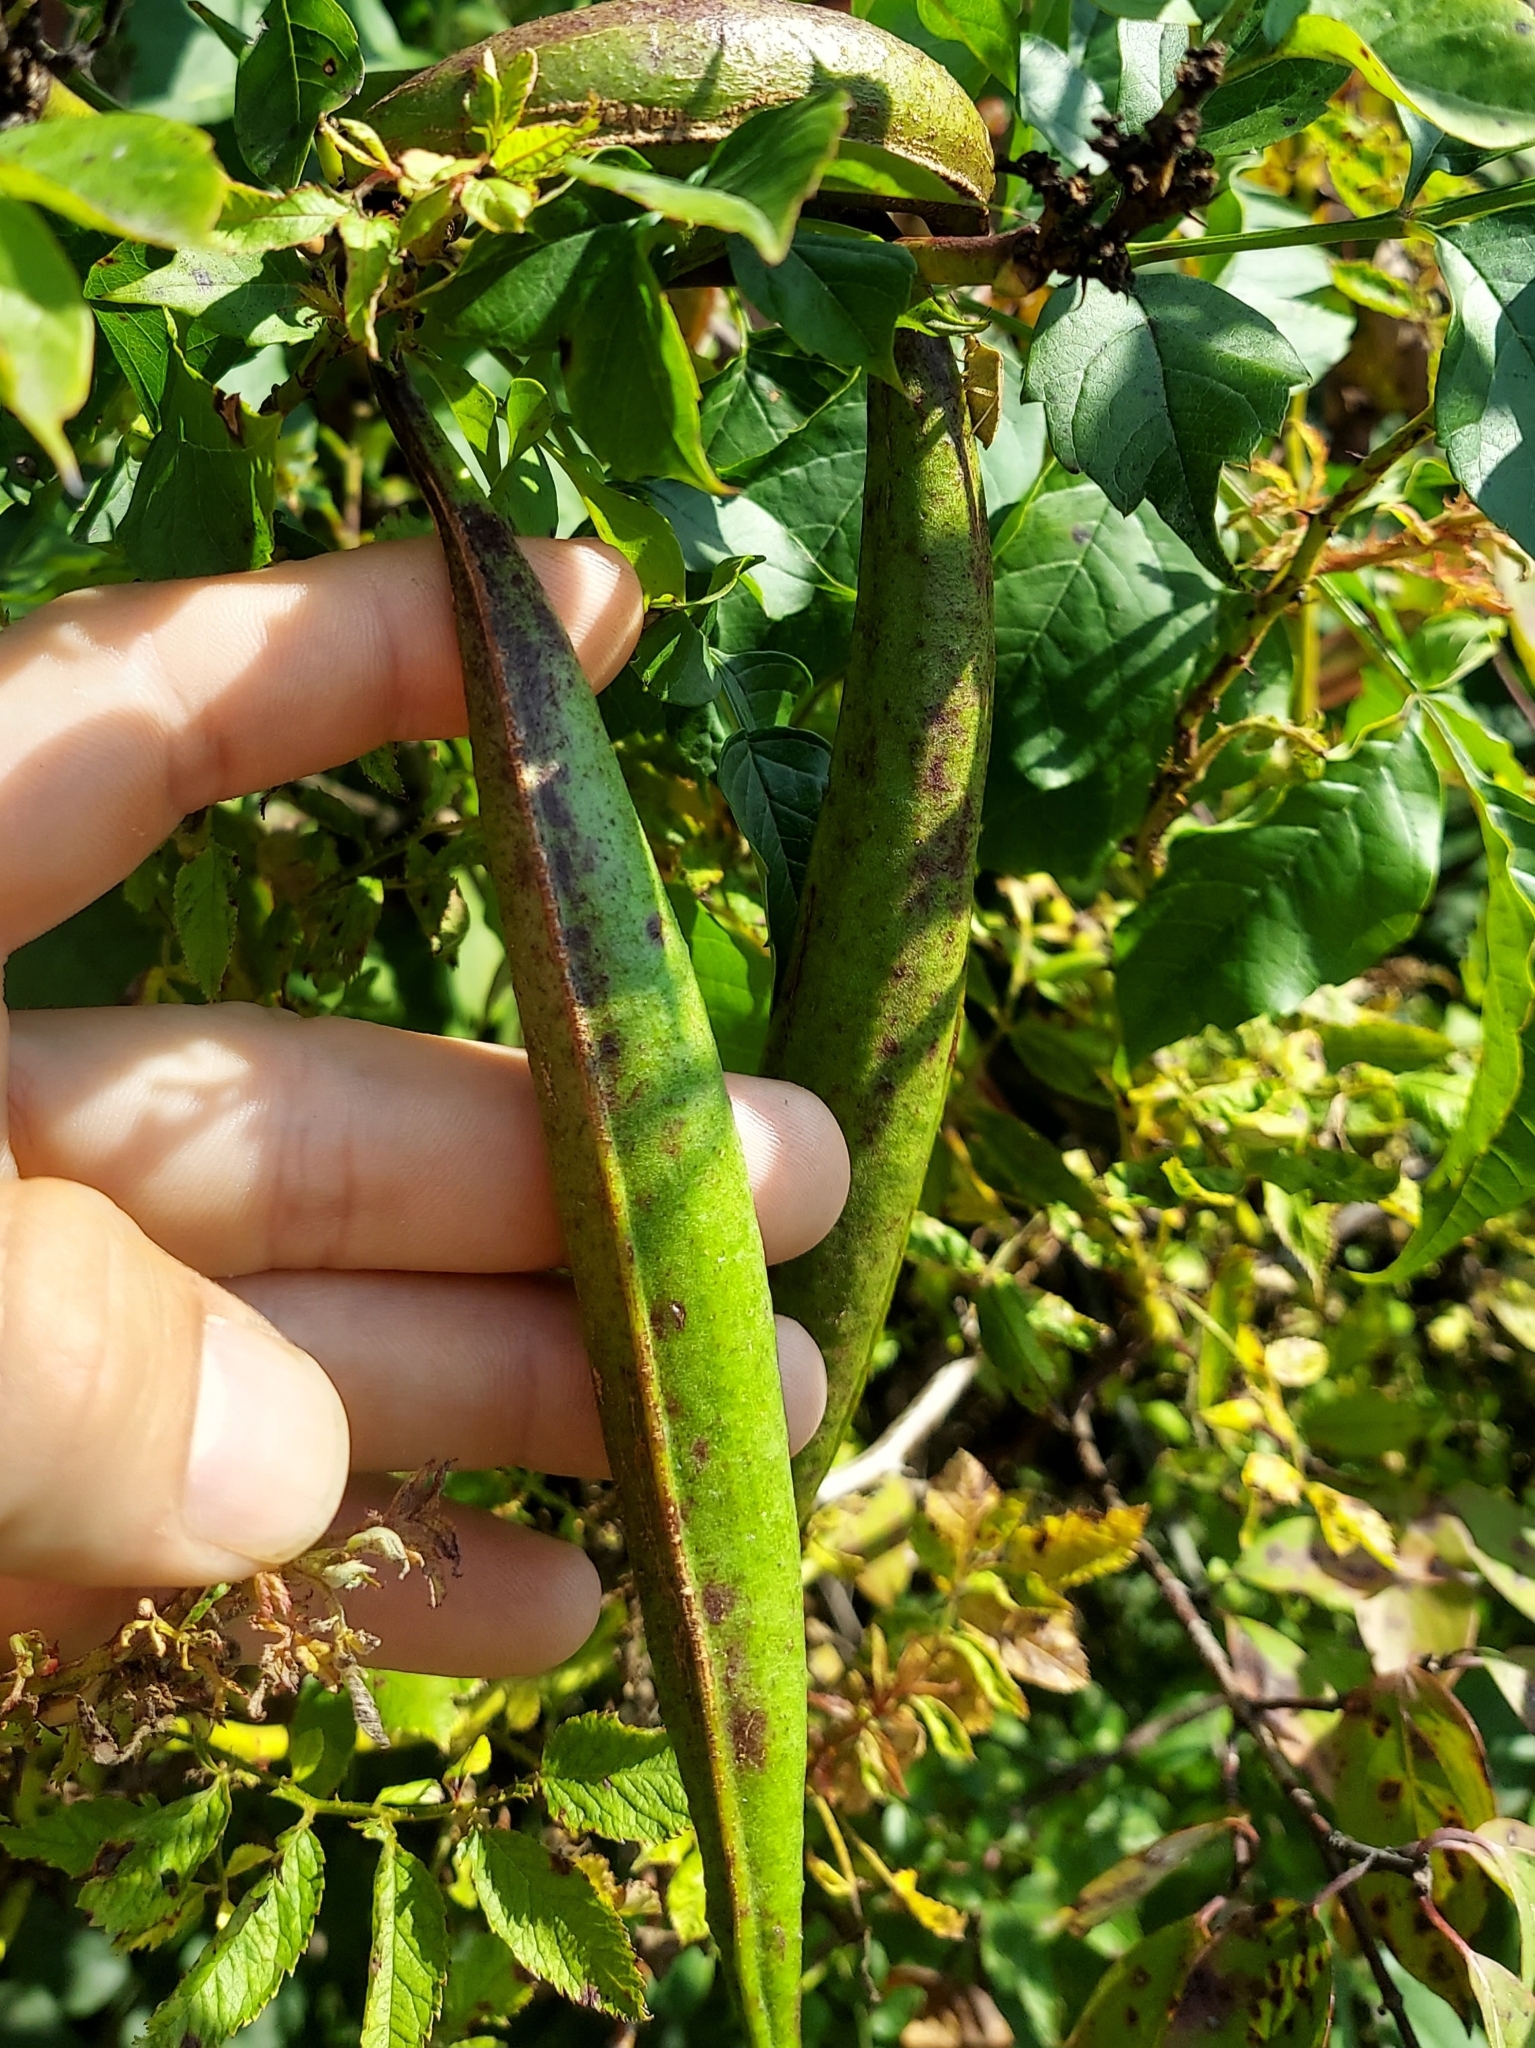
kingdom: Plantae
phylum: Tracheophyta
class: Magnoliopsida
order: Lamiales
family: Bignoniaceae
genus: Campsis
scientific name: Campsis radicans
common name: Trumpet-creeper
